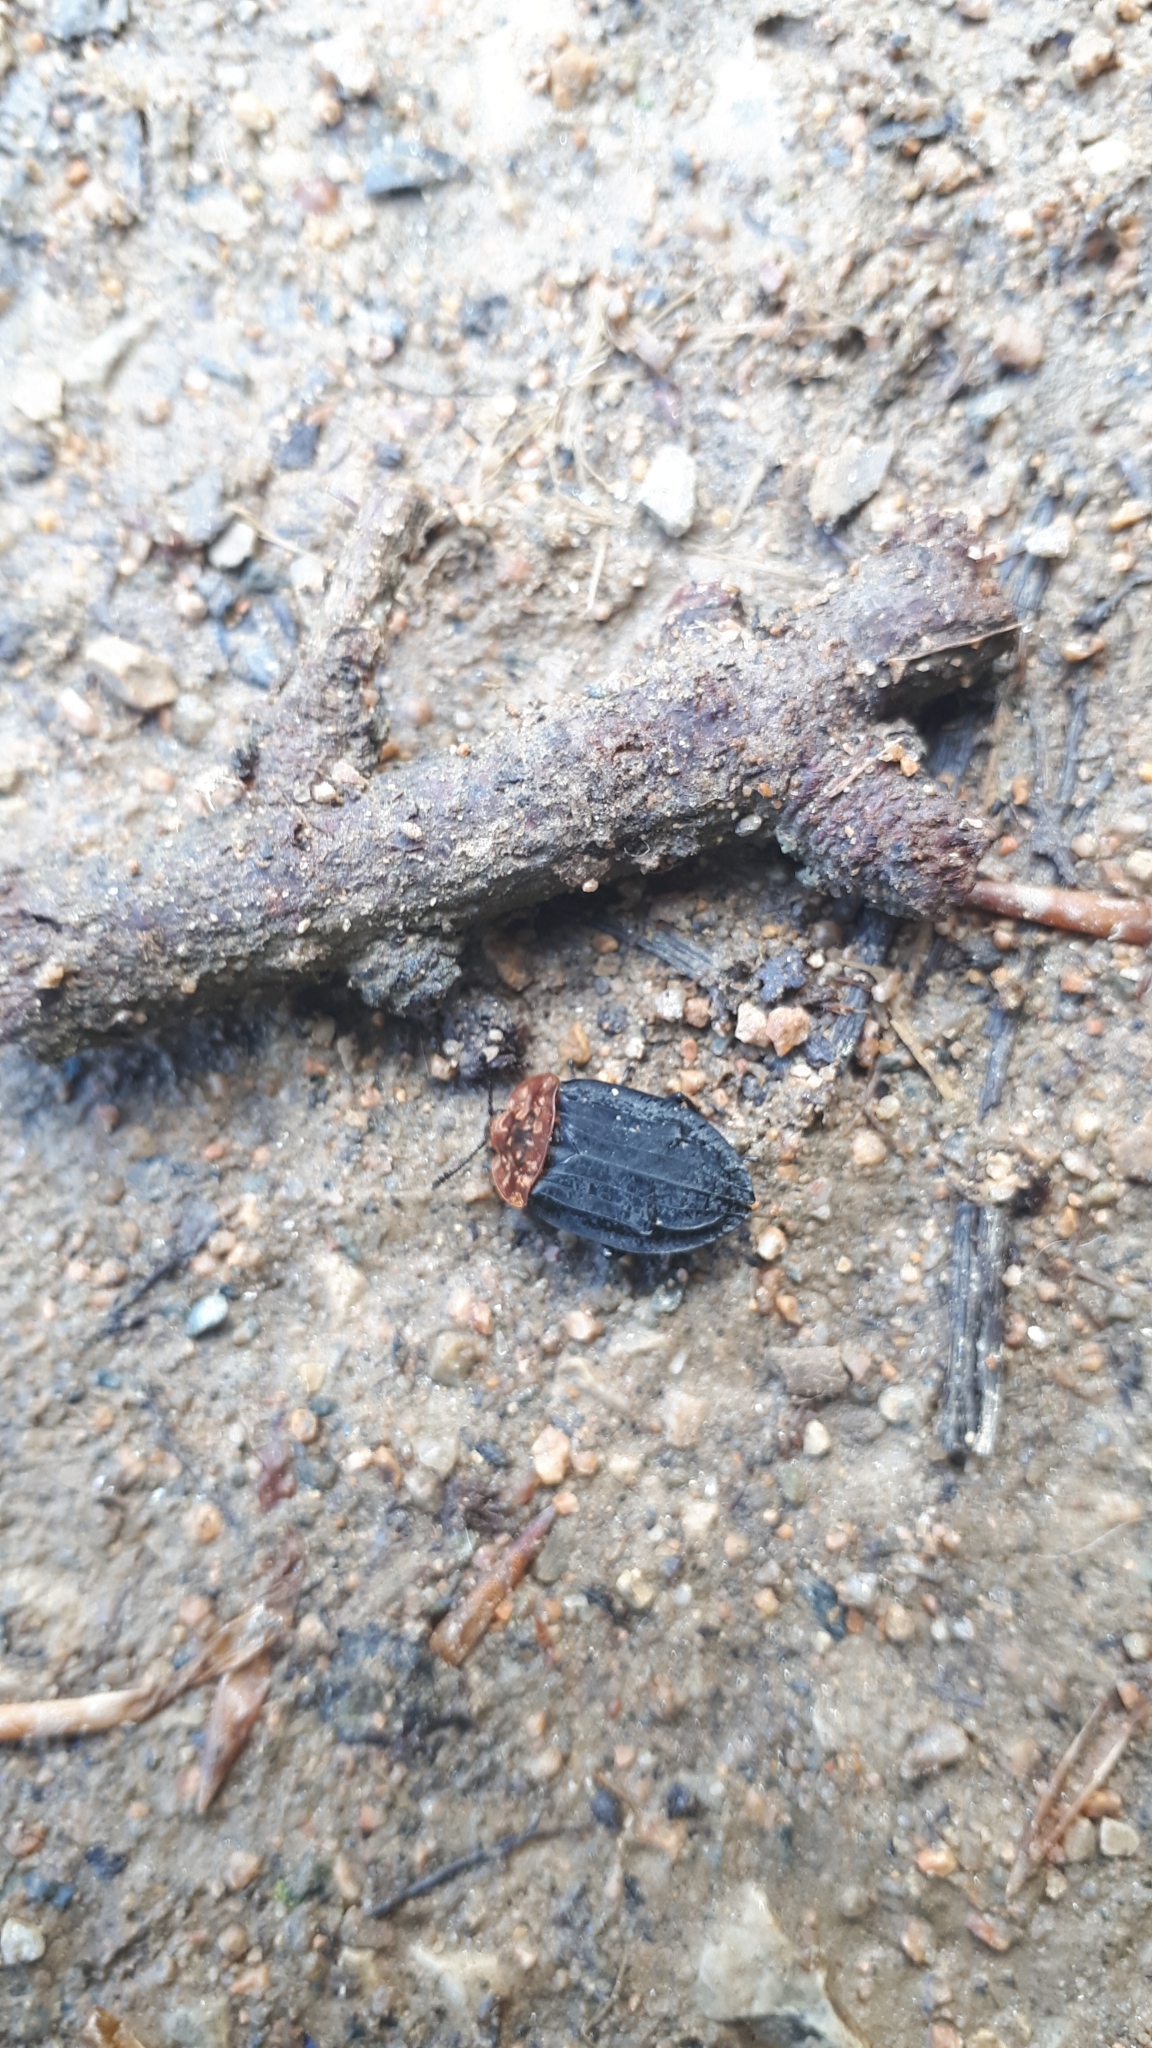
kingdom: Animalia
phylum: Arthropoda
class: Insecta
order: Coleoptera
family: Staphylinidae
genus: Oiceoptoma
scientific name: Oiceoptoma thoracicum
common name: Red-breasted carrion beetle
